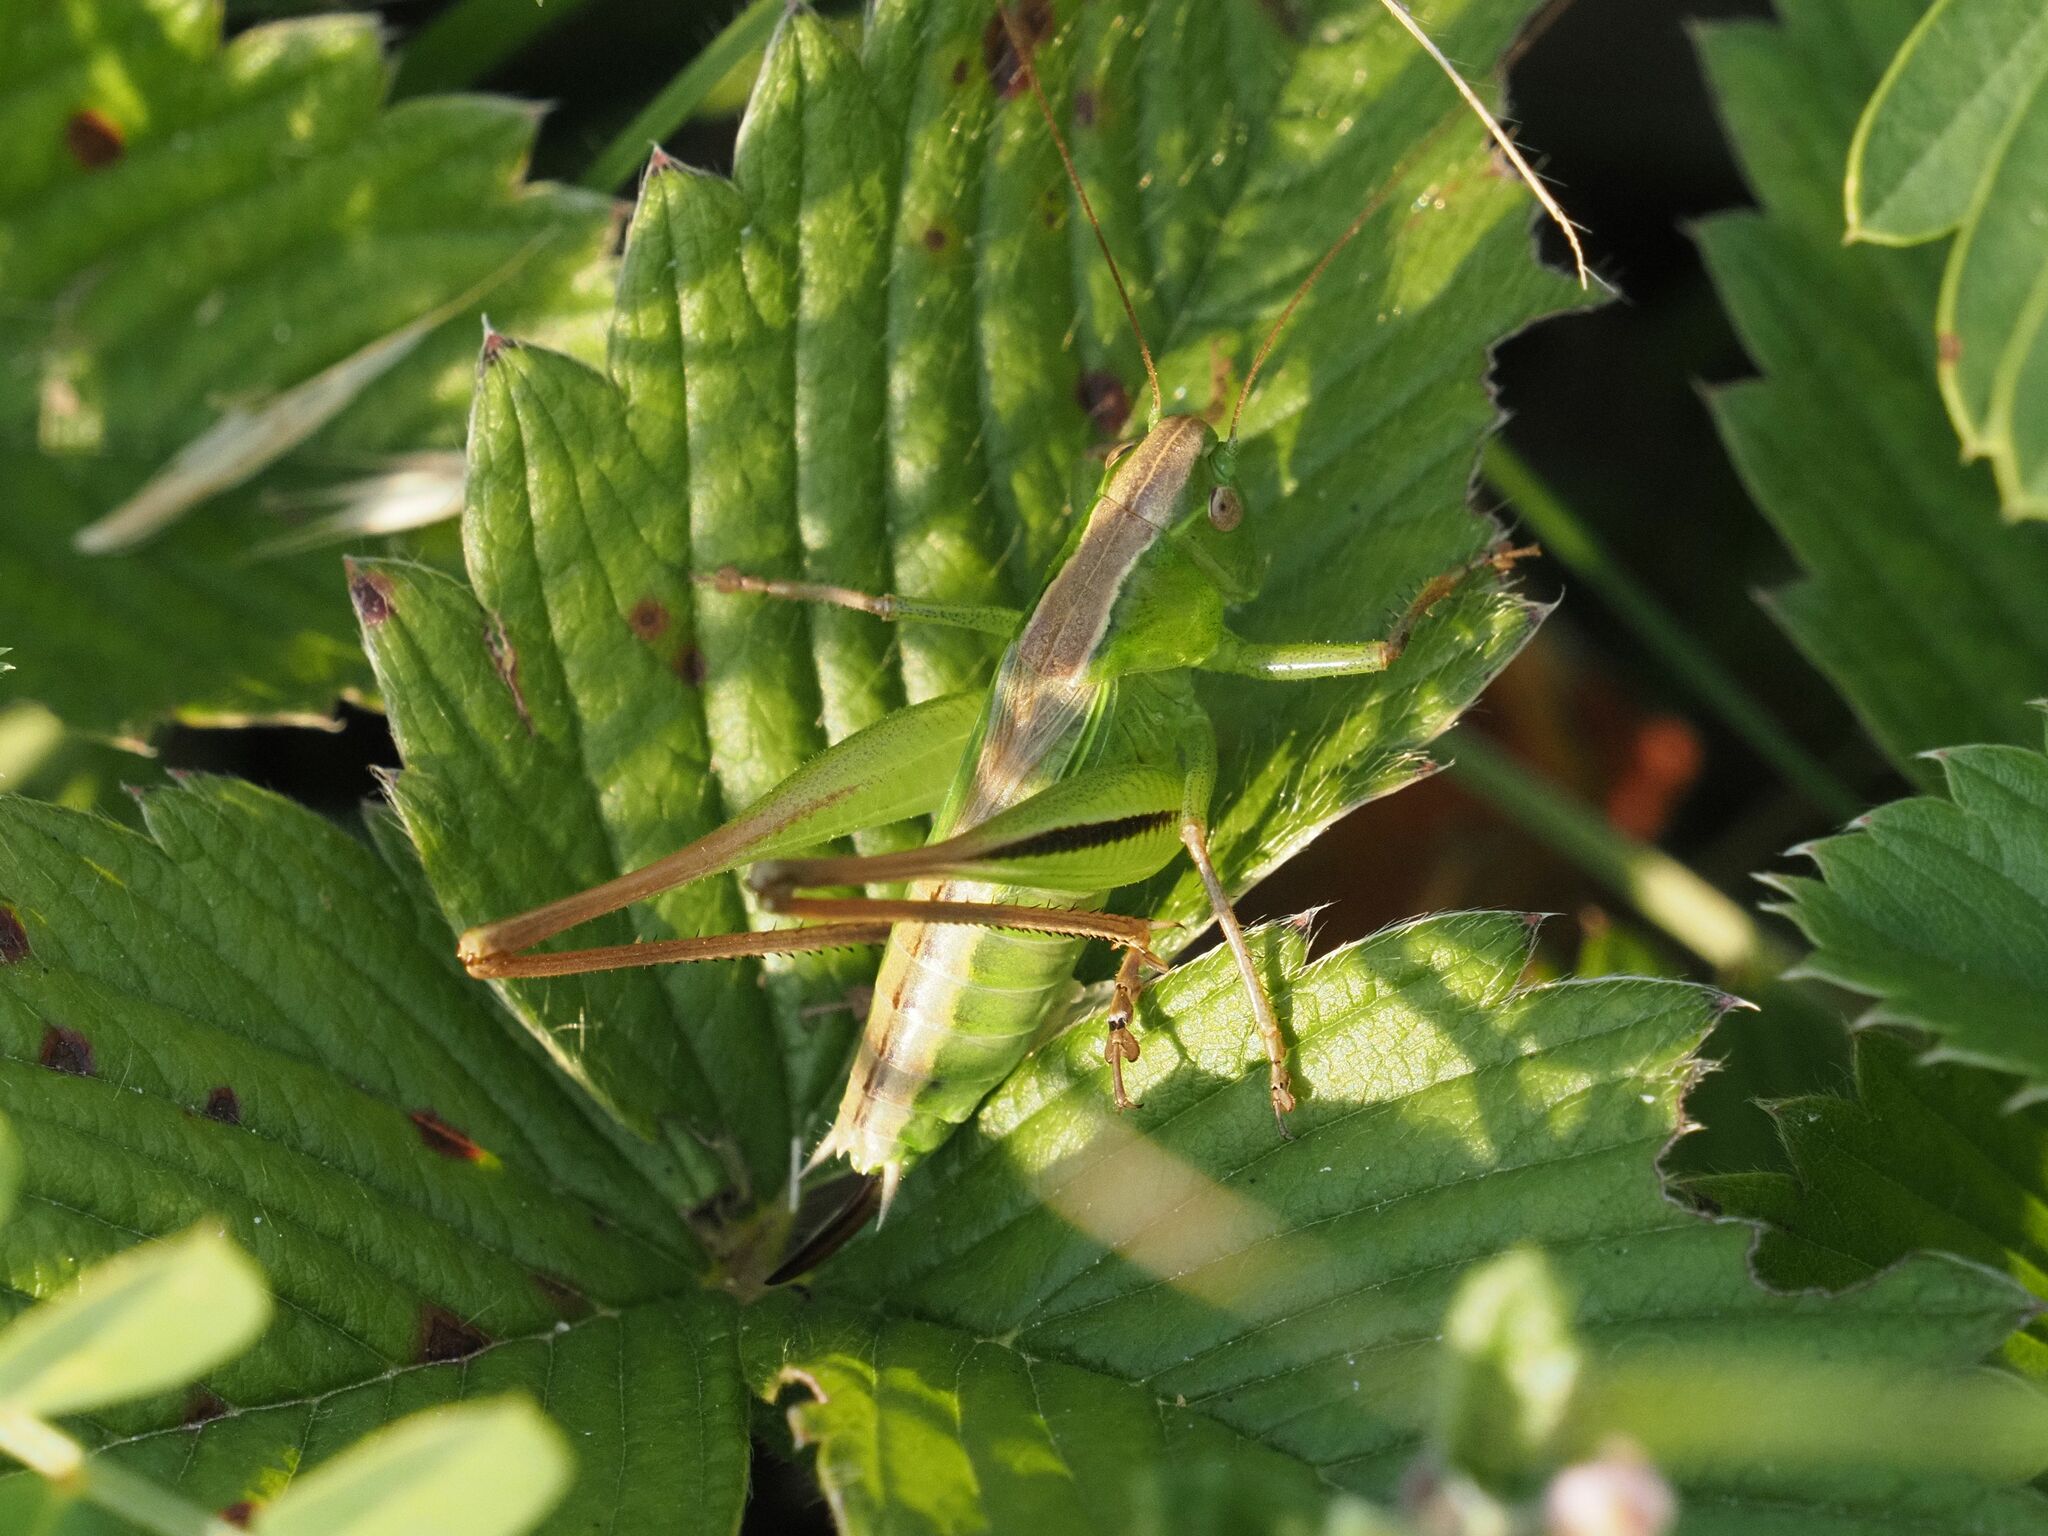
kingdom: Animalia
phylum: Arthropoda
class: Insecta
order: Orthoptera
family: Tettigoniidae
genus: Bicolorana
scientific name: Bicolorana bicolor
